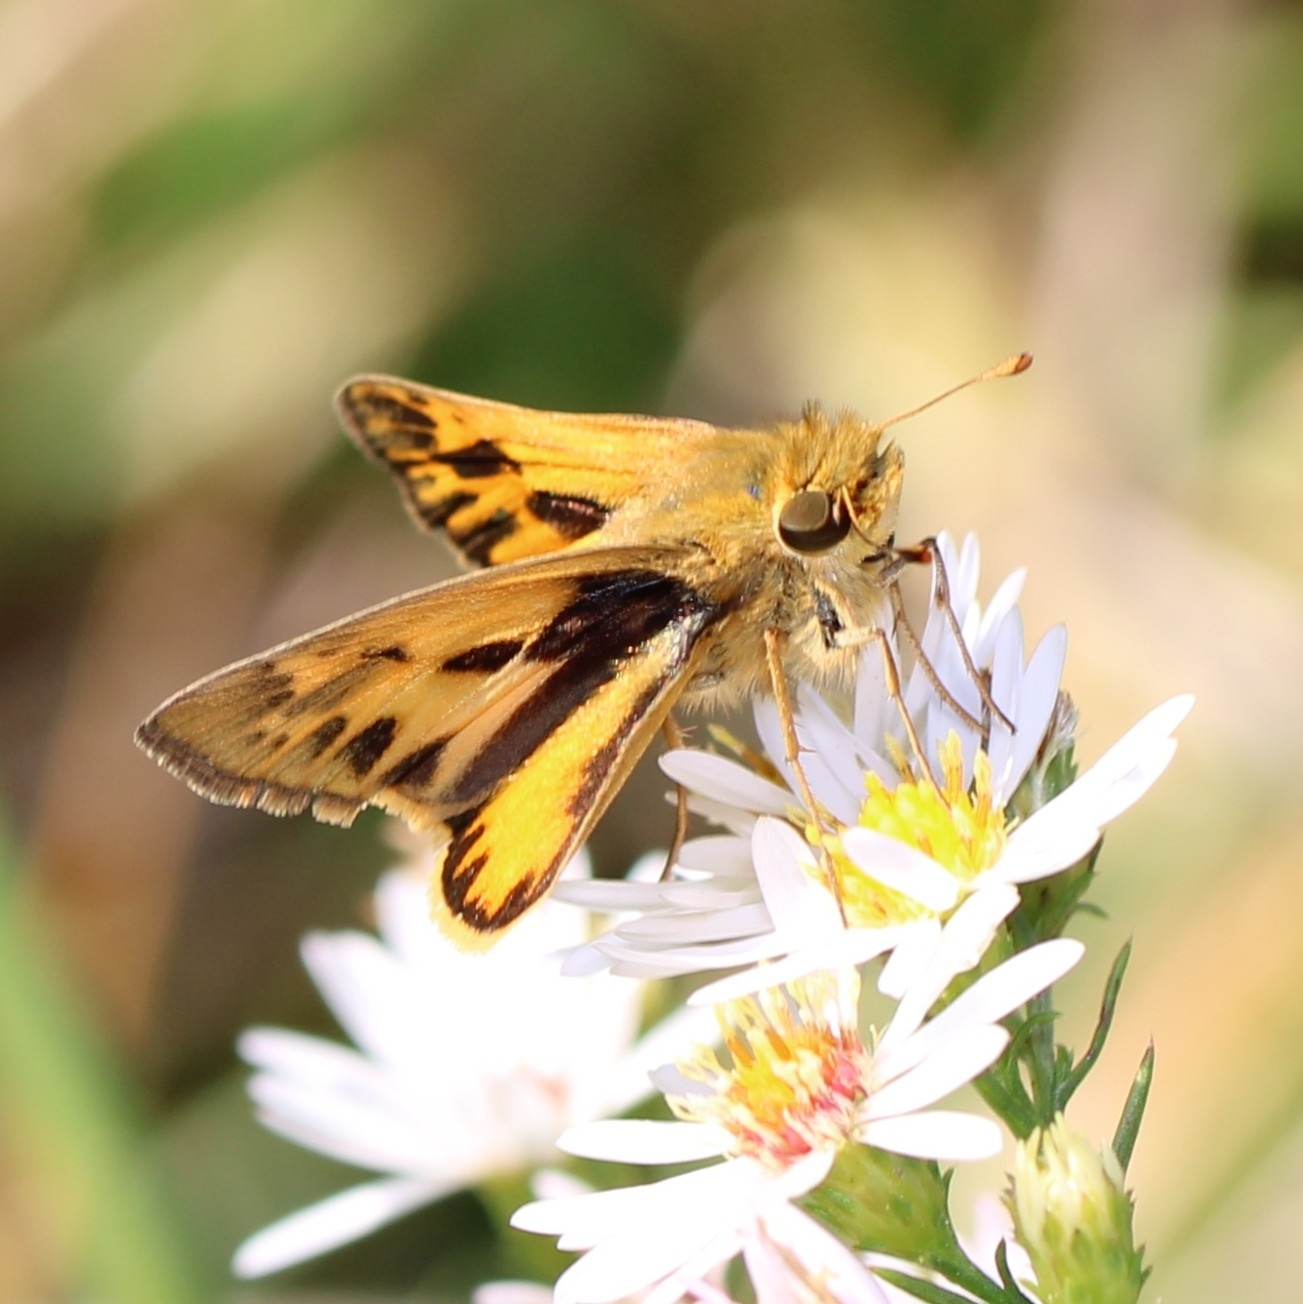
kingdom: Animalia
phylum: Arthropoda
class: Insecta
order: Lepidoptera
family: Hesperiidae
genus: Hylephila
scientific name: Hylephila phyleus
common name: Fiery skipper
